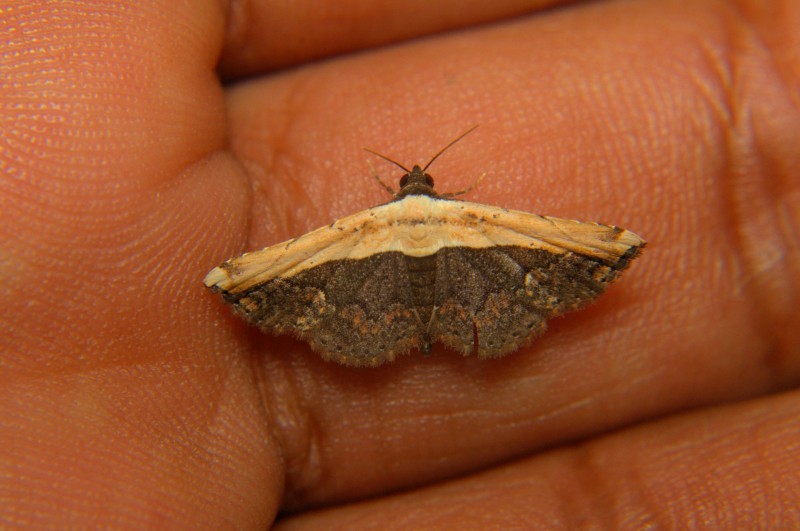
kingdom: Animalia
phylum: Arthropoda
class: Insecta
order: Lepidoptera
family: Noctuidae
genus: Ataboruza
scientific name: Ataboruza divisa
